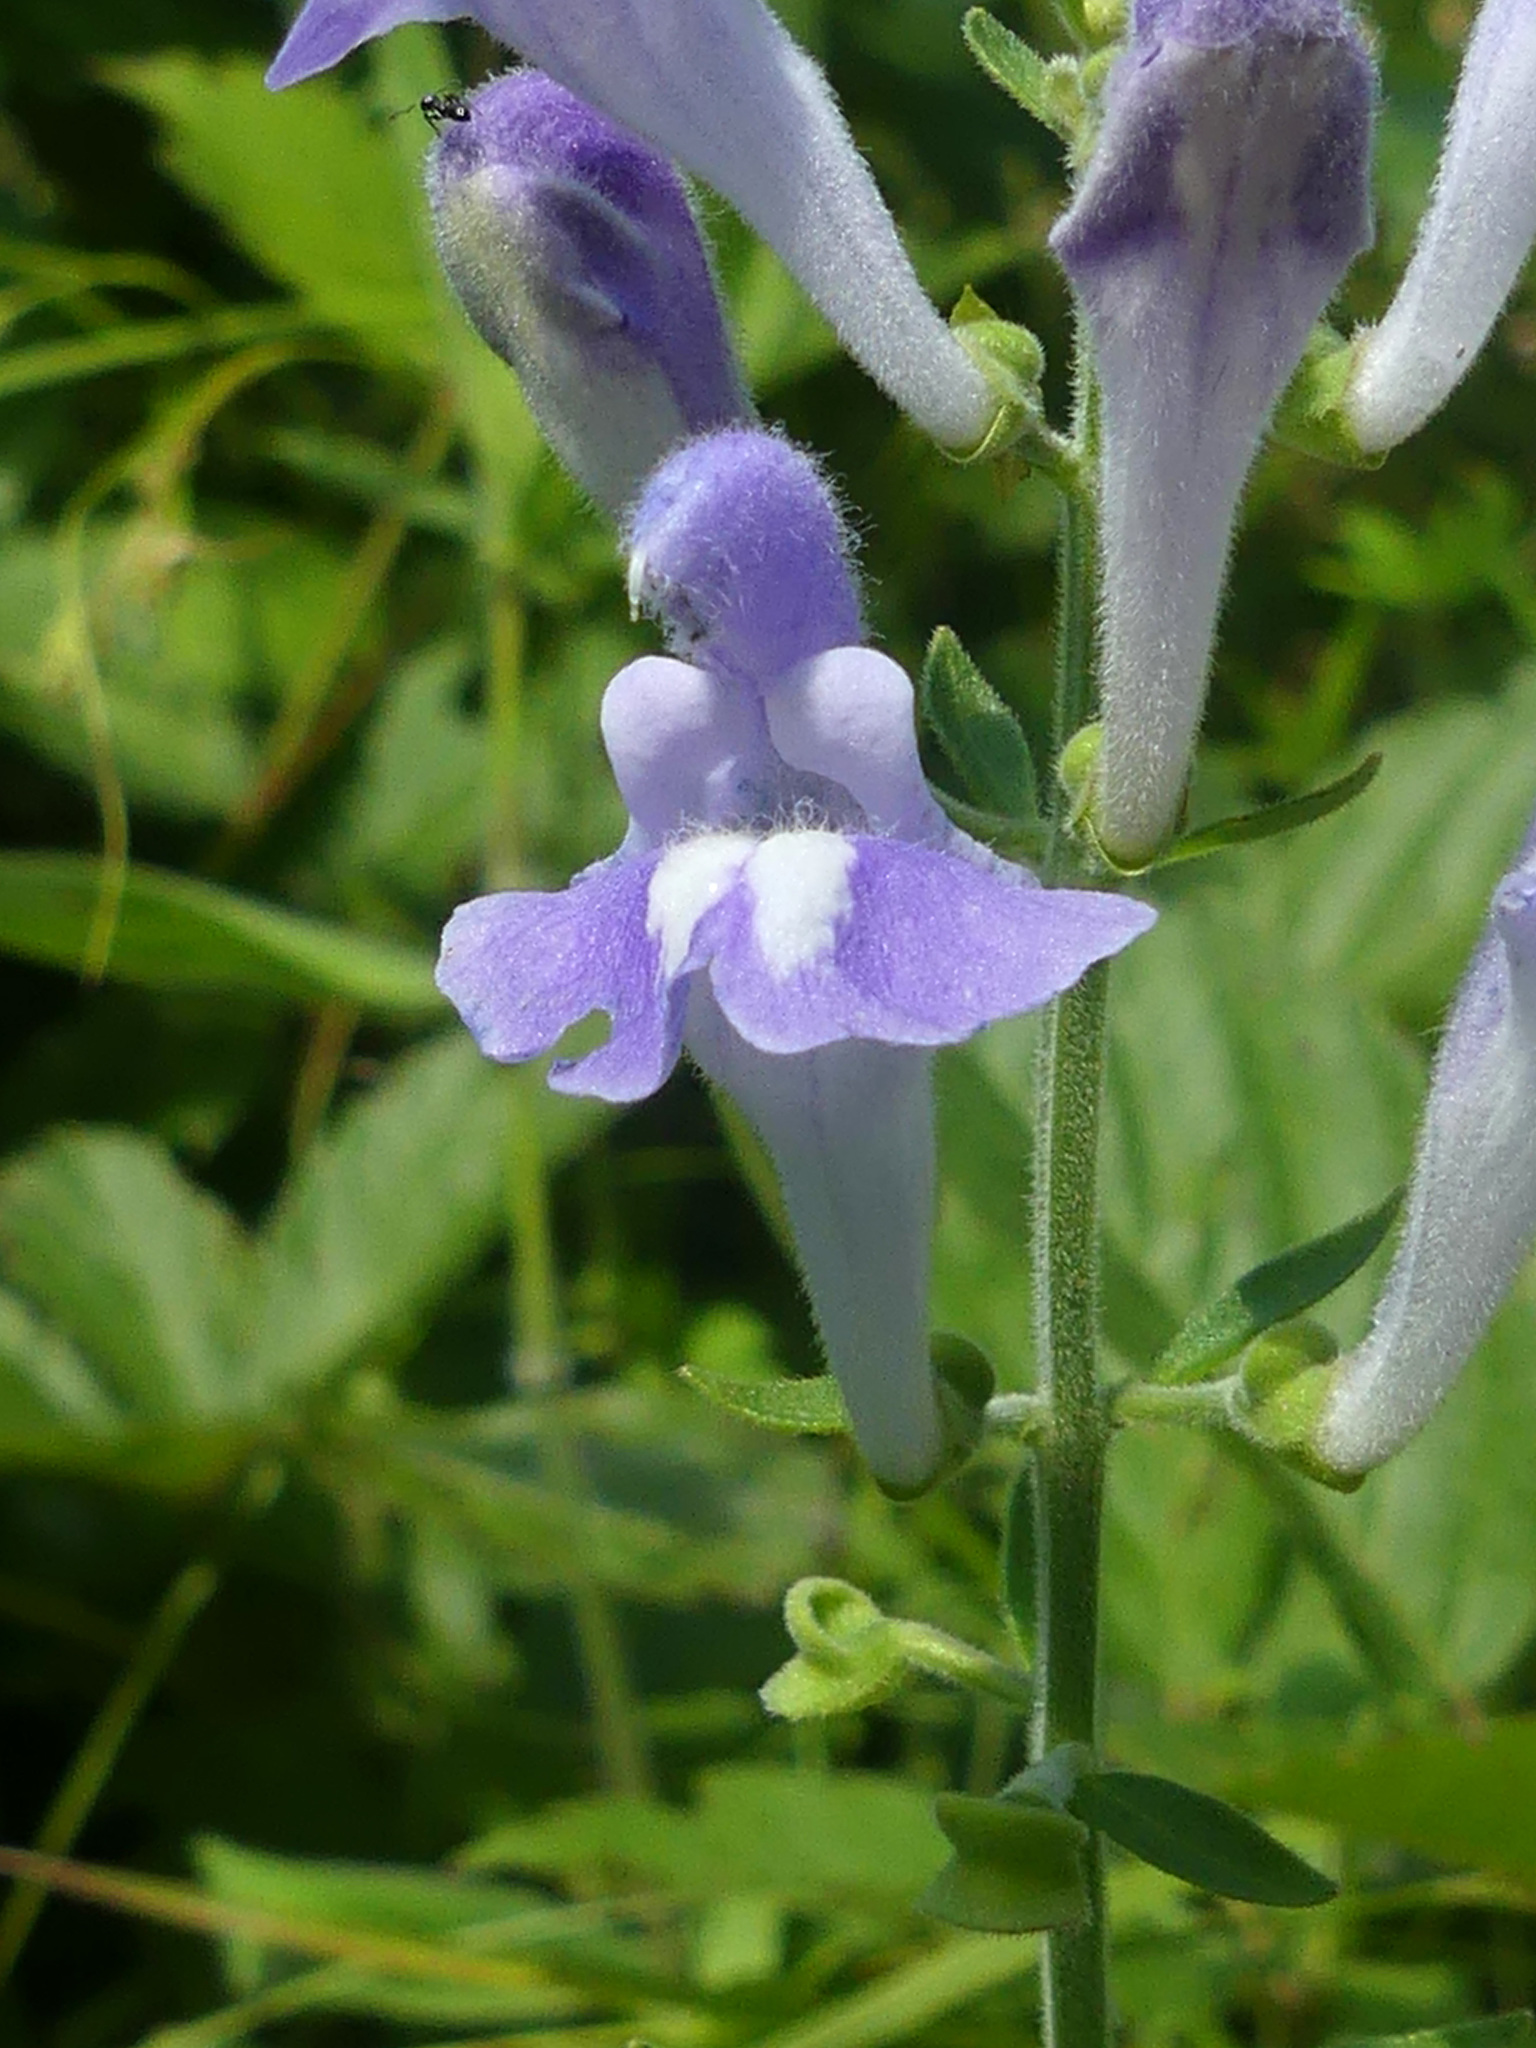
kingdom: Plantae
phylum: Tracheophyta
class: Magnoliopsida
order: Lamiales
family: Lamiaceae
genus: Scutellaria
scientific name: Scutellaria integrifolia
